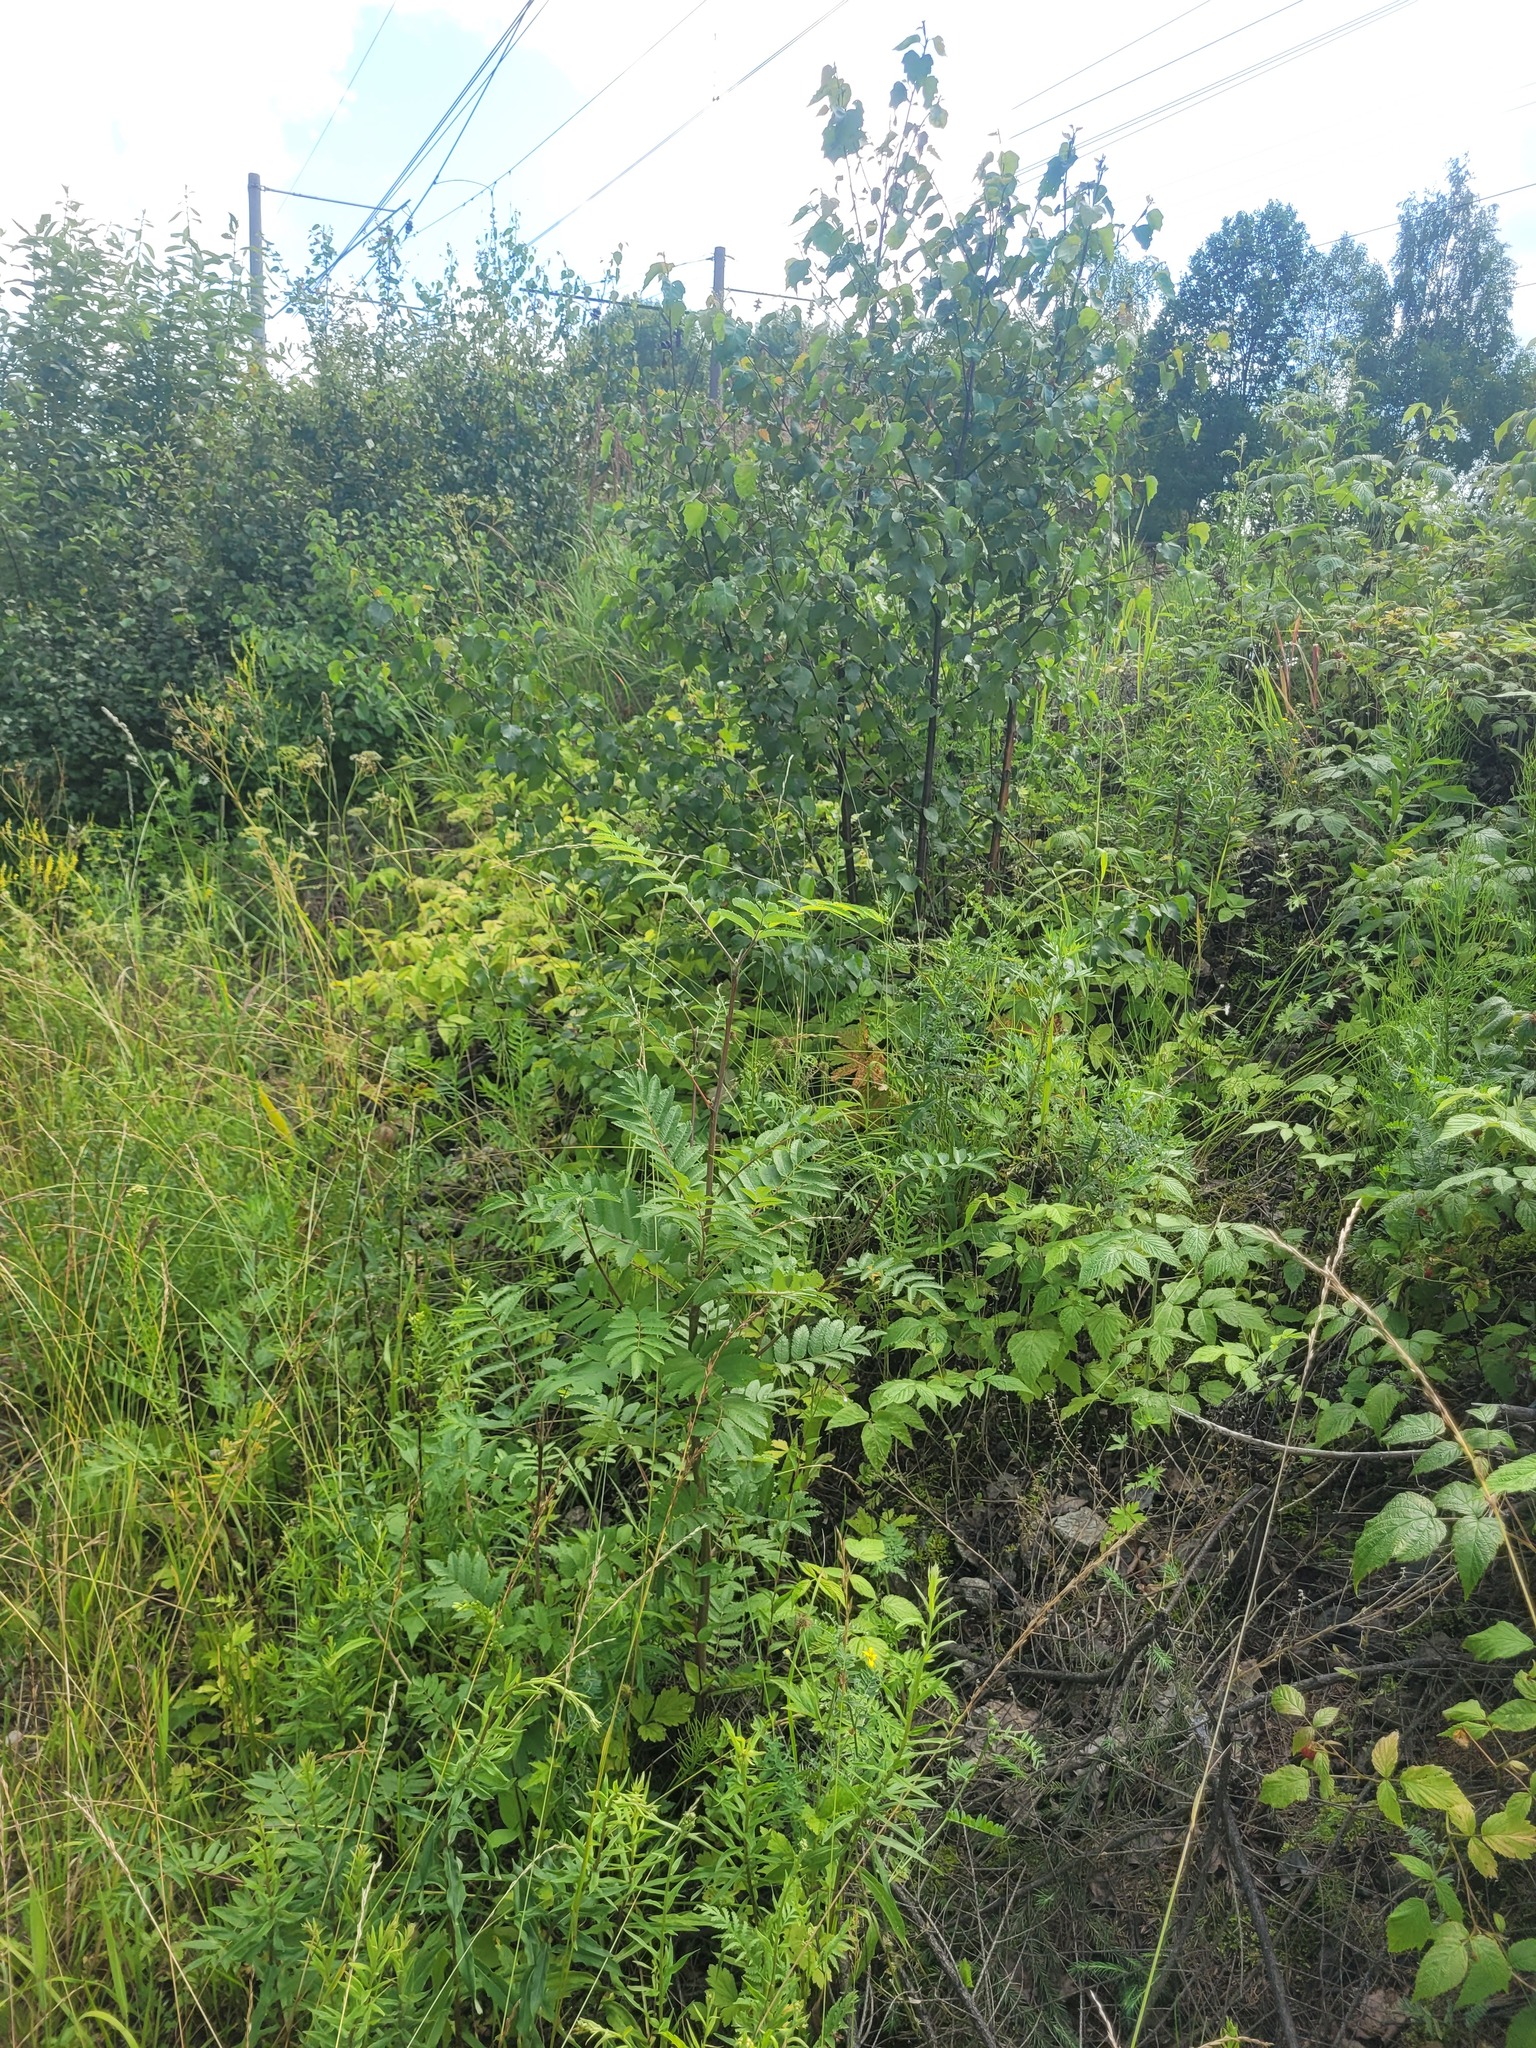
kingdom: Plantae
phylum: Tracheophyta
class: Magnoliopsida
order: Rosales
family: Rosaceae
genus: Sorbus
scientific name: Sorbus aucuparia
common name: Rowan
